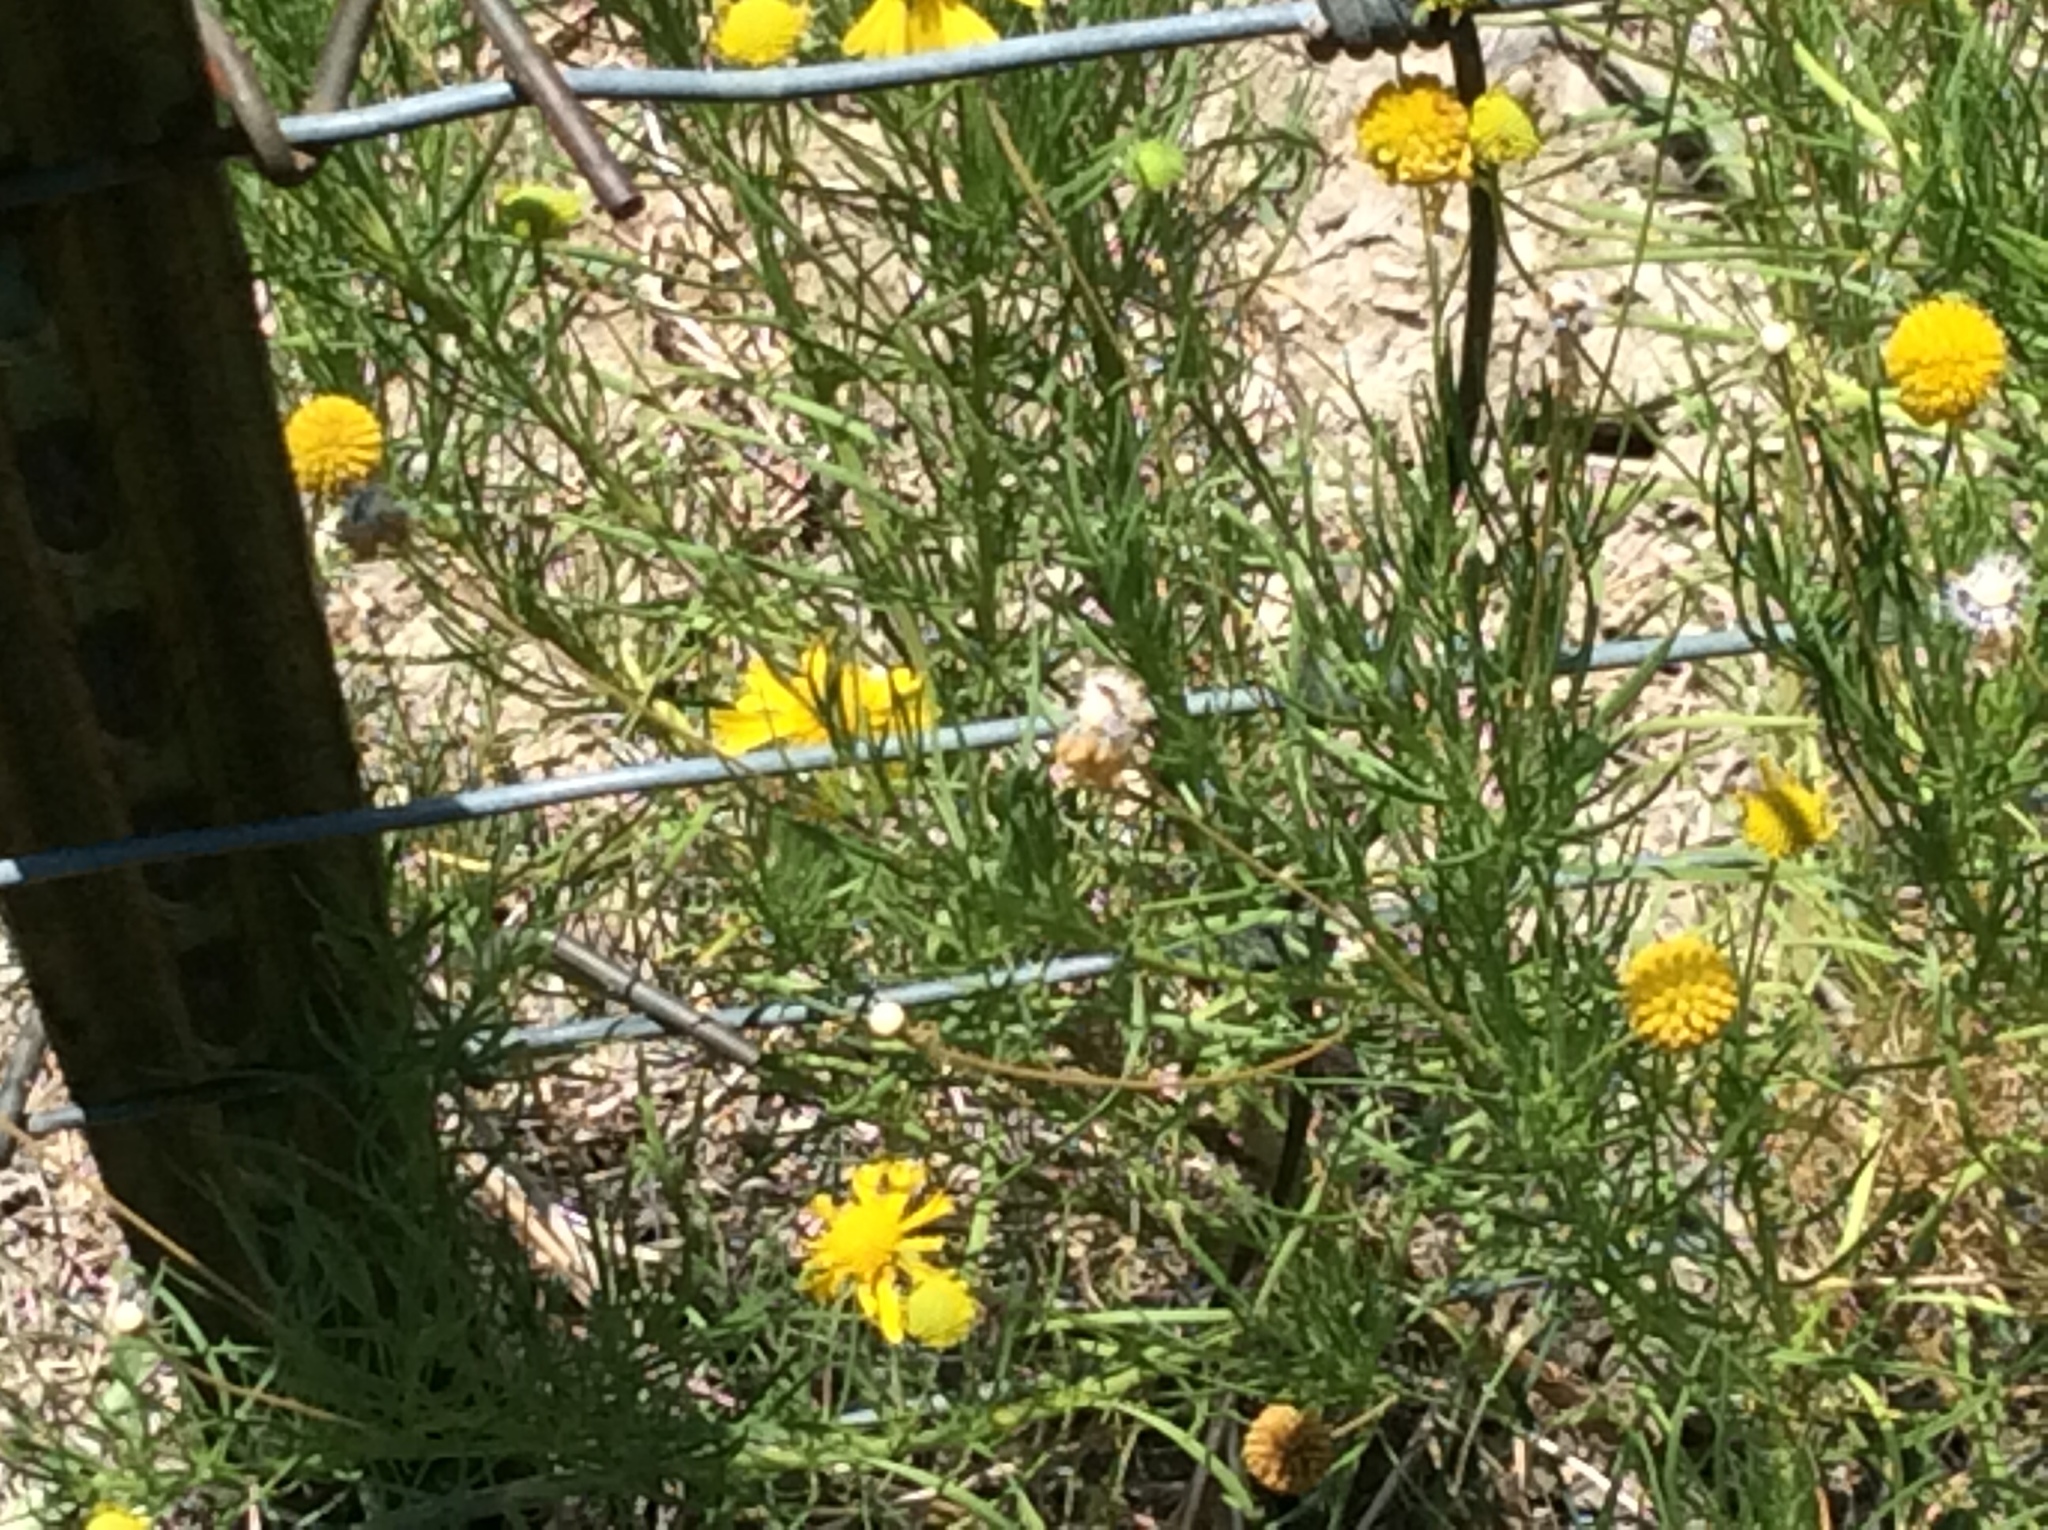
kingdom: Plantae
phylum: Tracheophyta
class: Magnoliopsida
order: Asterales
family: Asteraceae
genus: Helenium
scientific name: Helenium amarum
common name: Bitter sneezeweed
